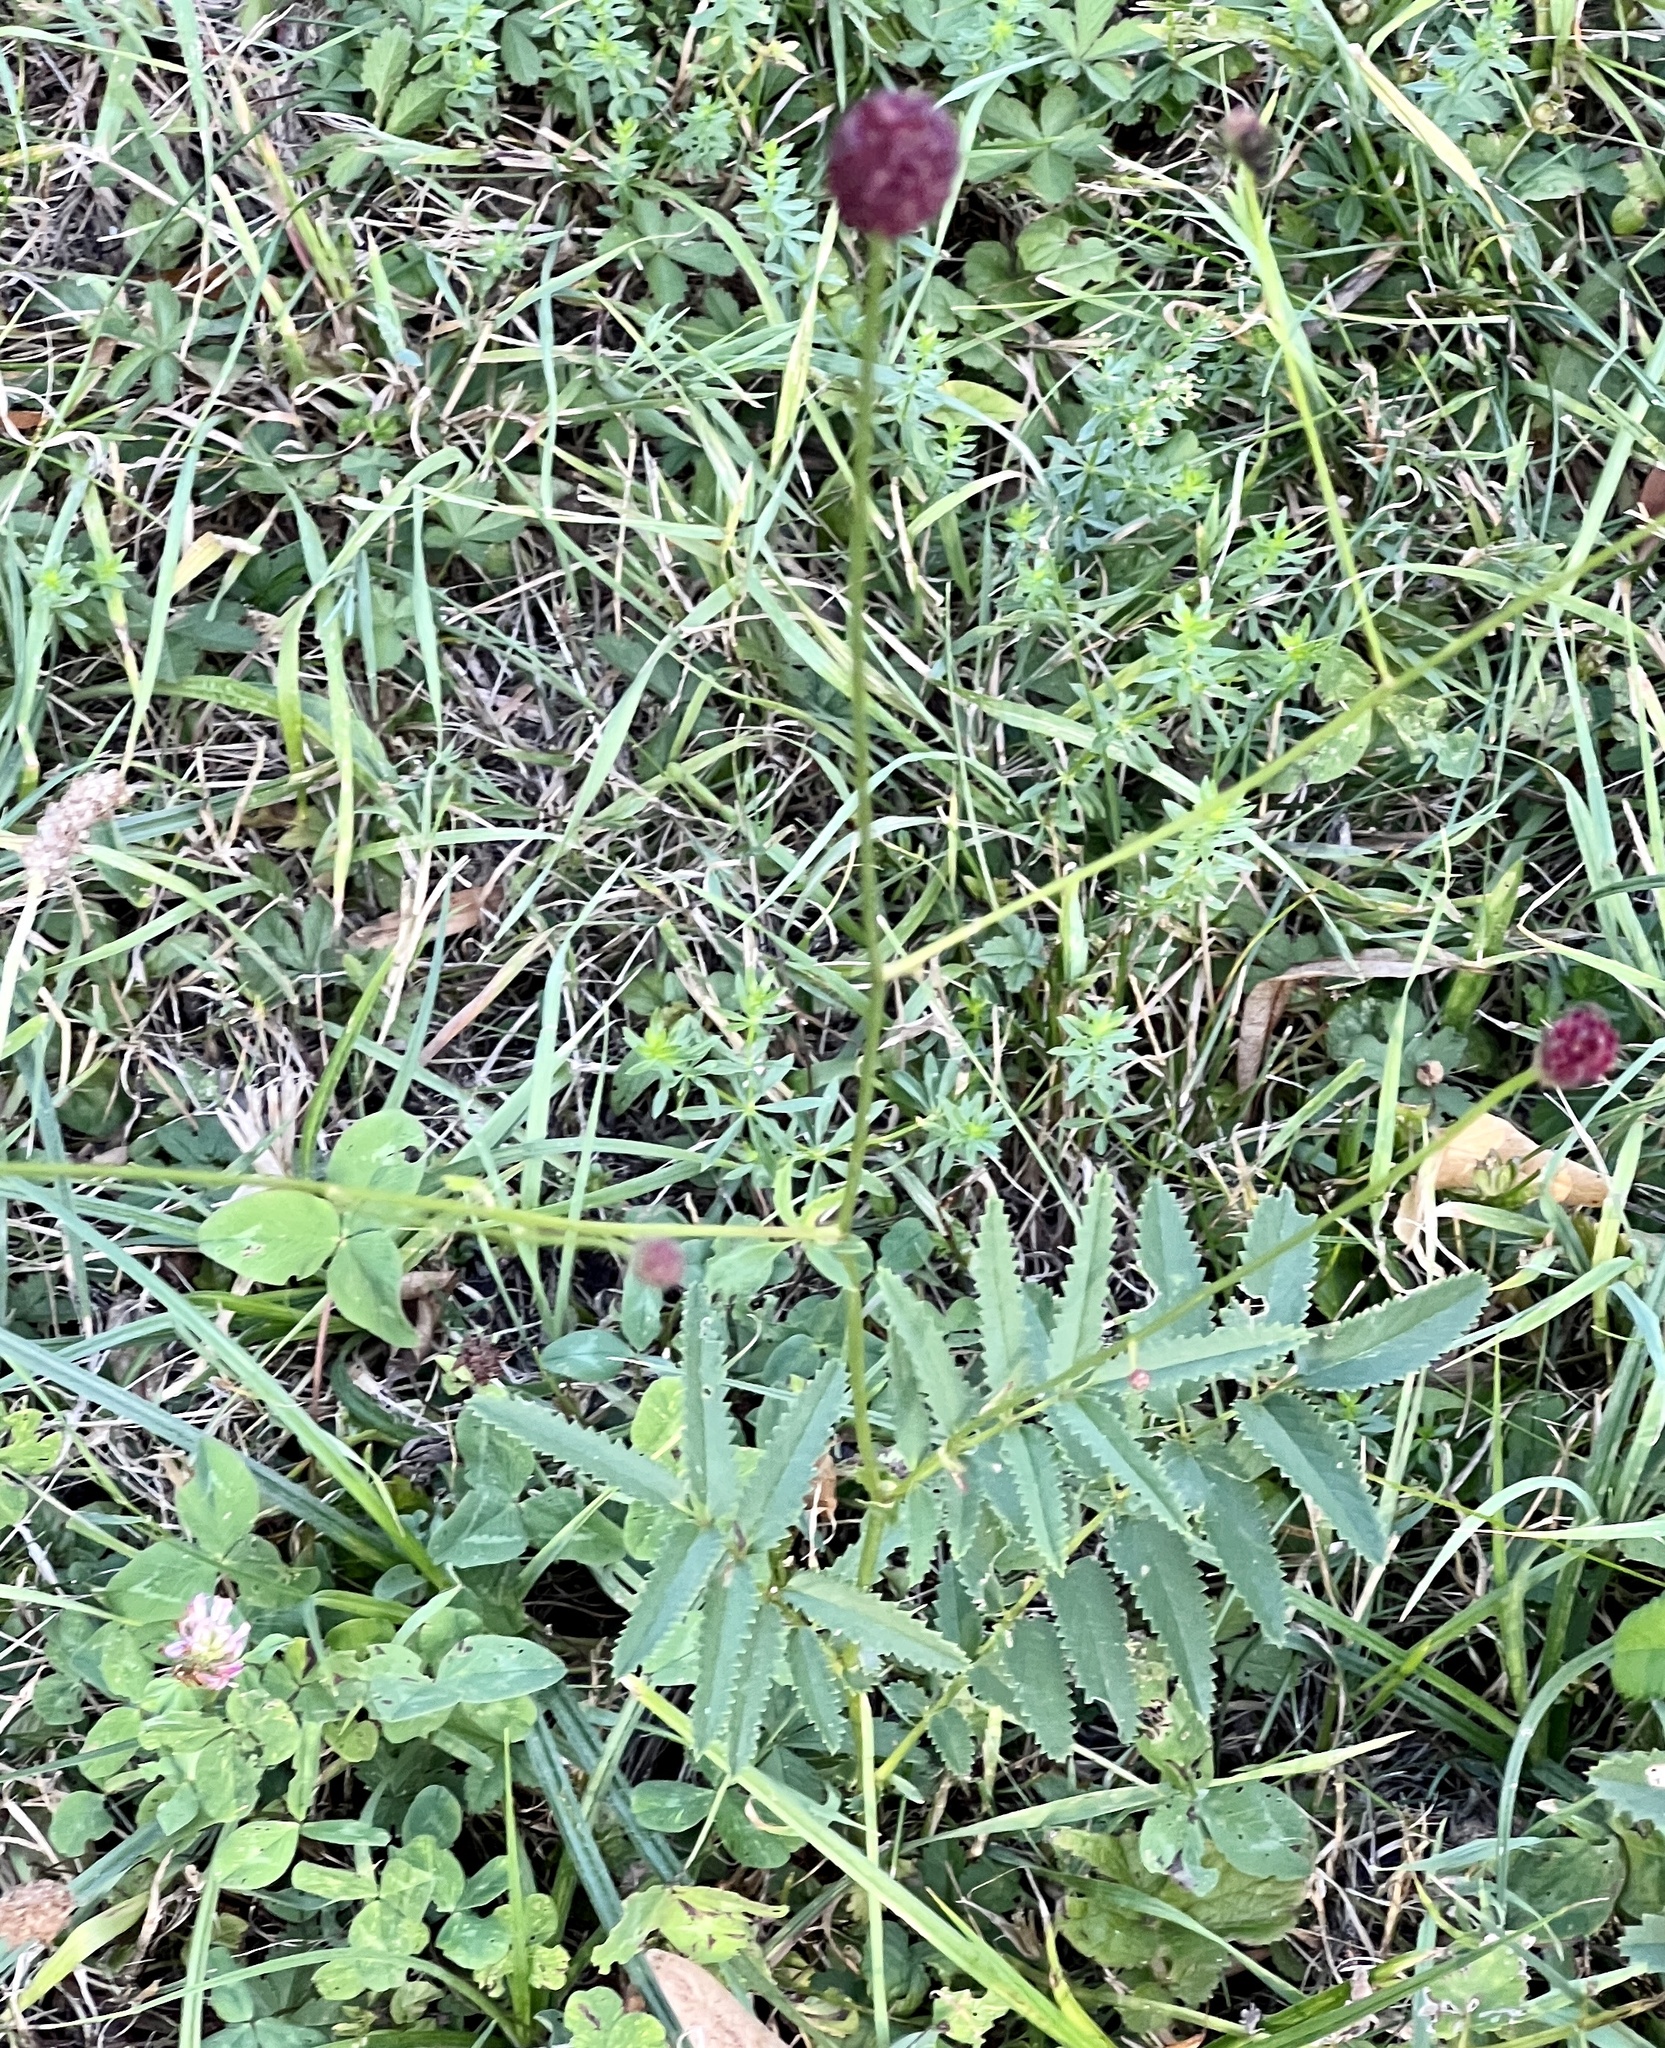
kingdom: Plantae
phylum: Tracheophyta
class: Magnoliopsida
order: Rosales
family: Rosaceae
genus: Sanguisorba
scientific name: Sanguisorba officinalis
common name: Great burnet
